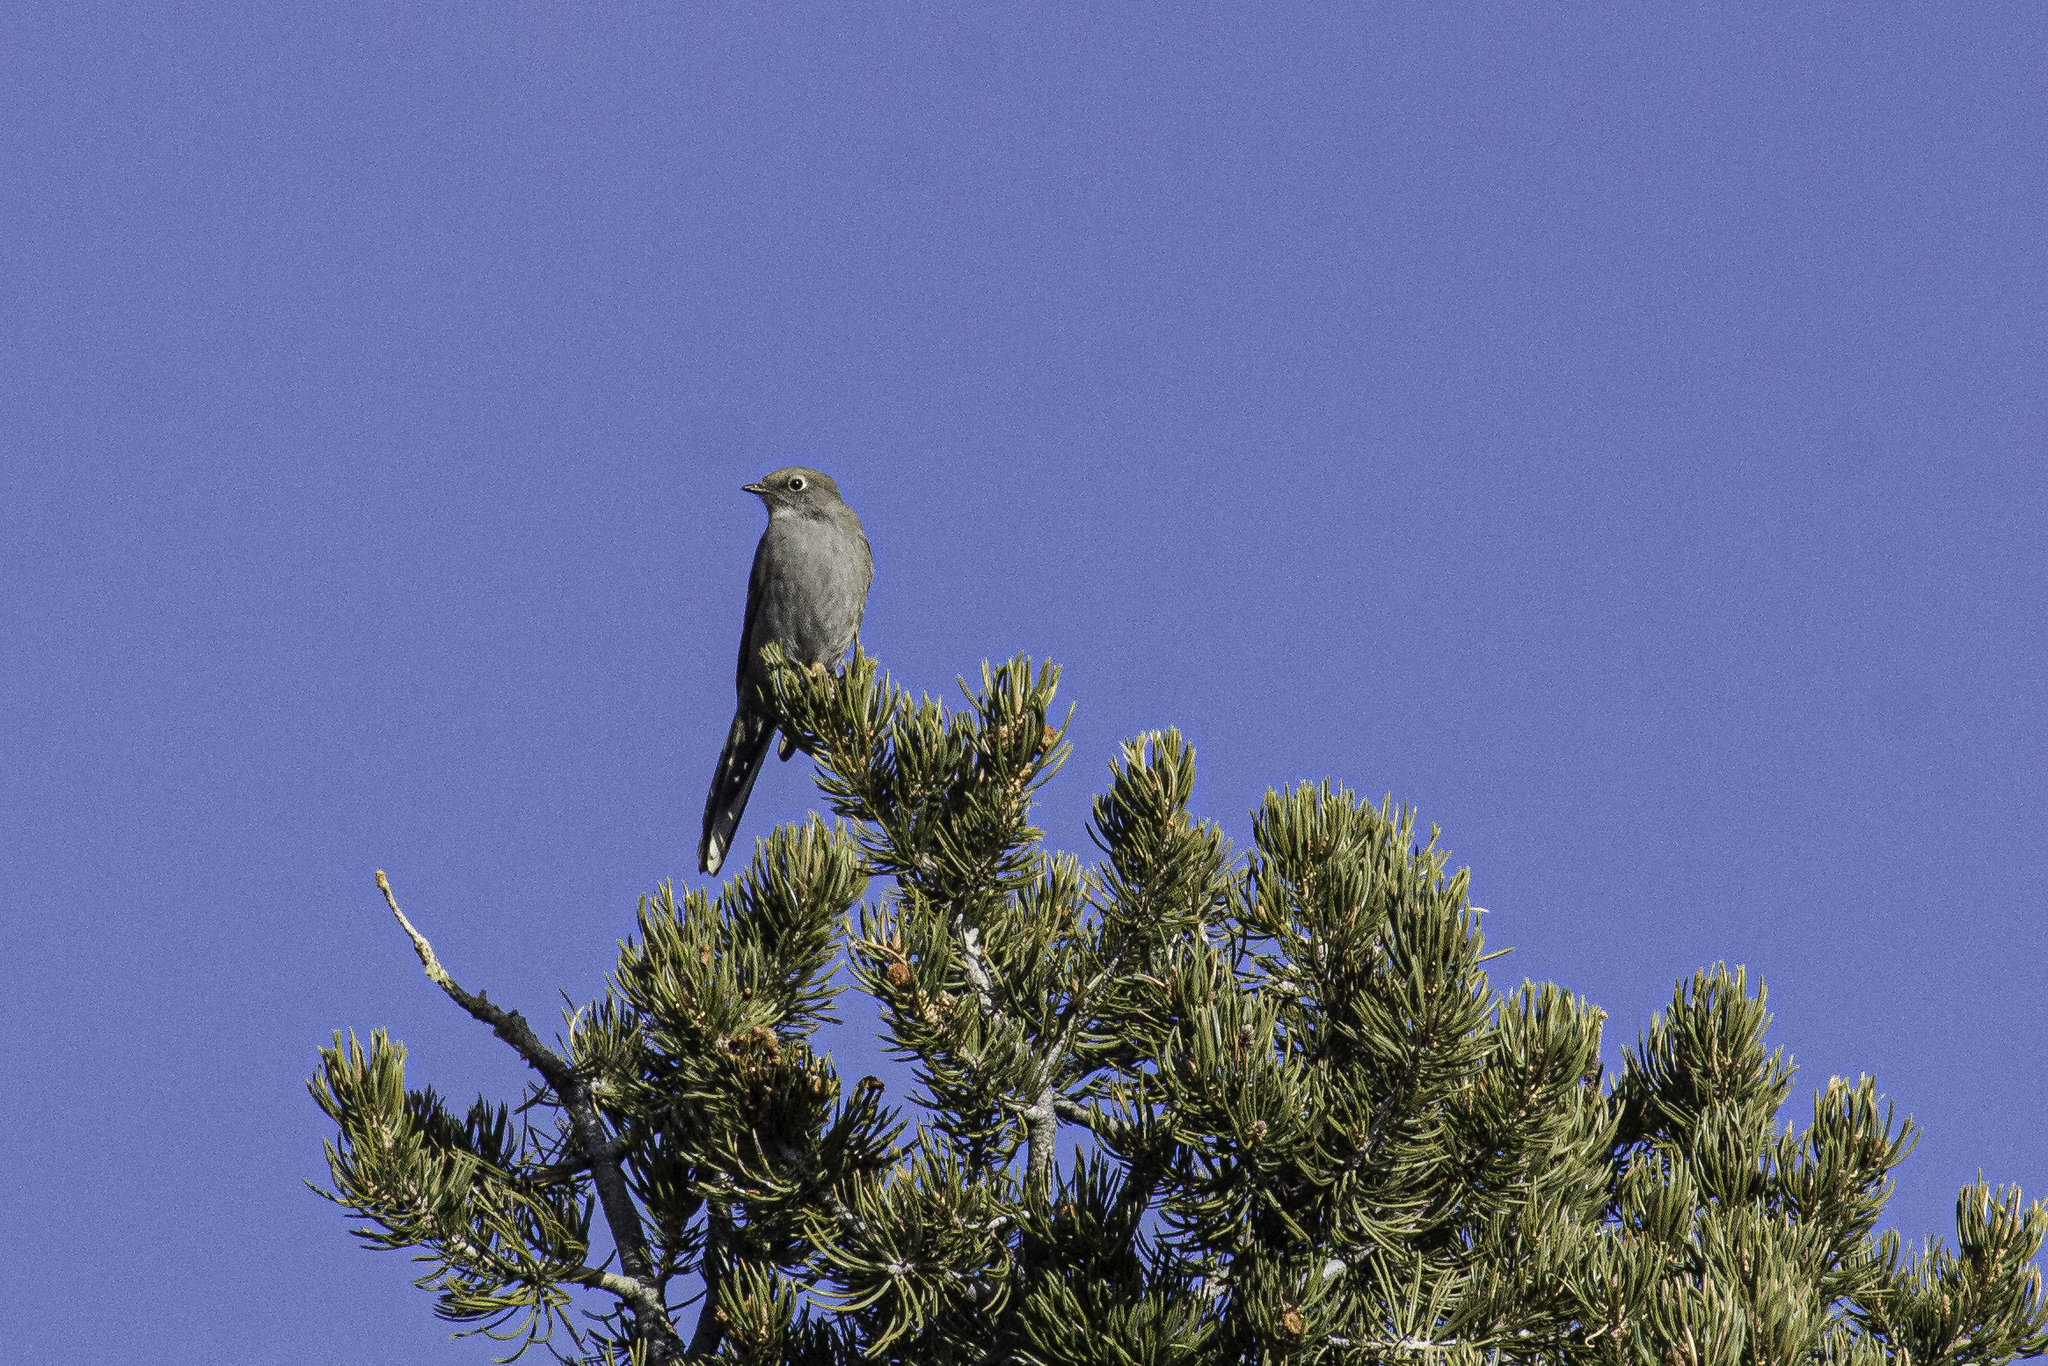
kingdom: Animalia
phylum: Chordata
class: Aves
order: Passeriformes
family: Turdidae
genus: Myadestes
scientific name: Myadestes townsendi
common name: Townsend's solitaire
